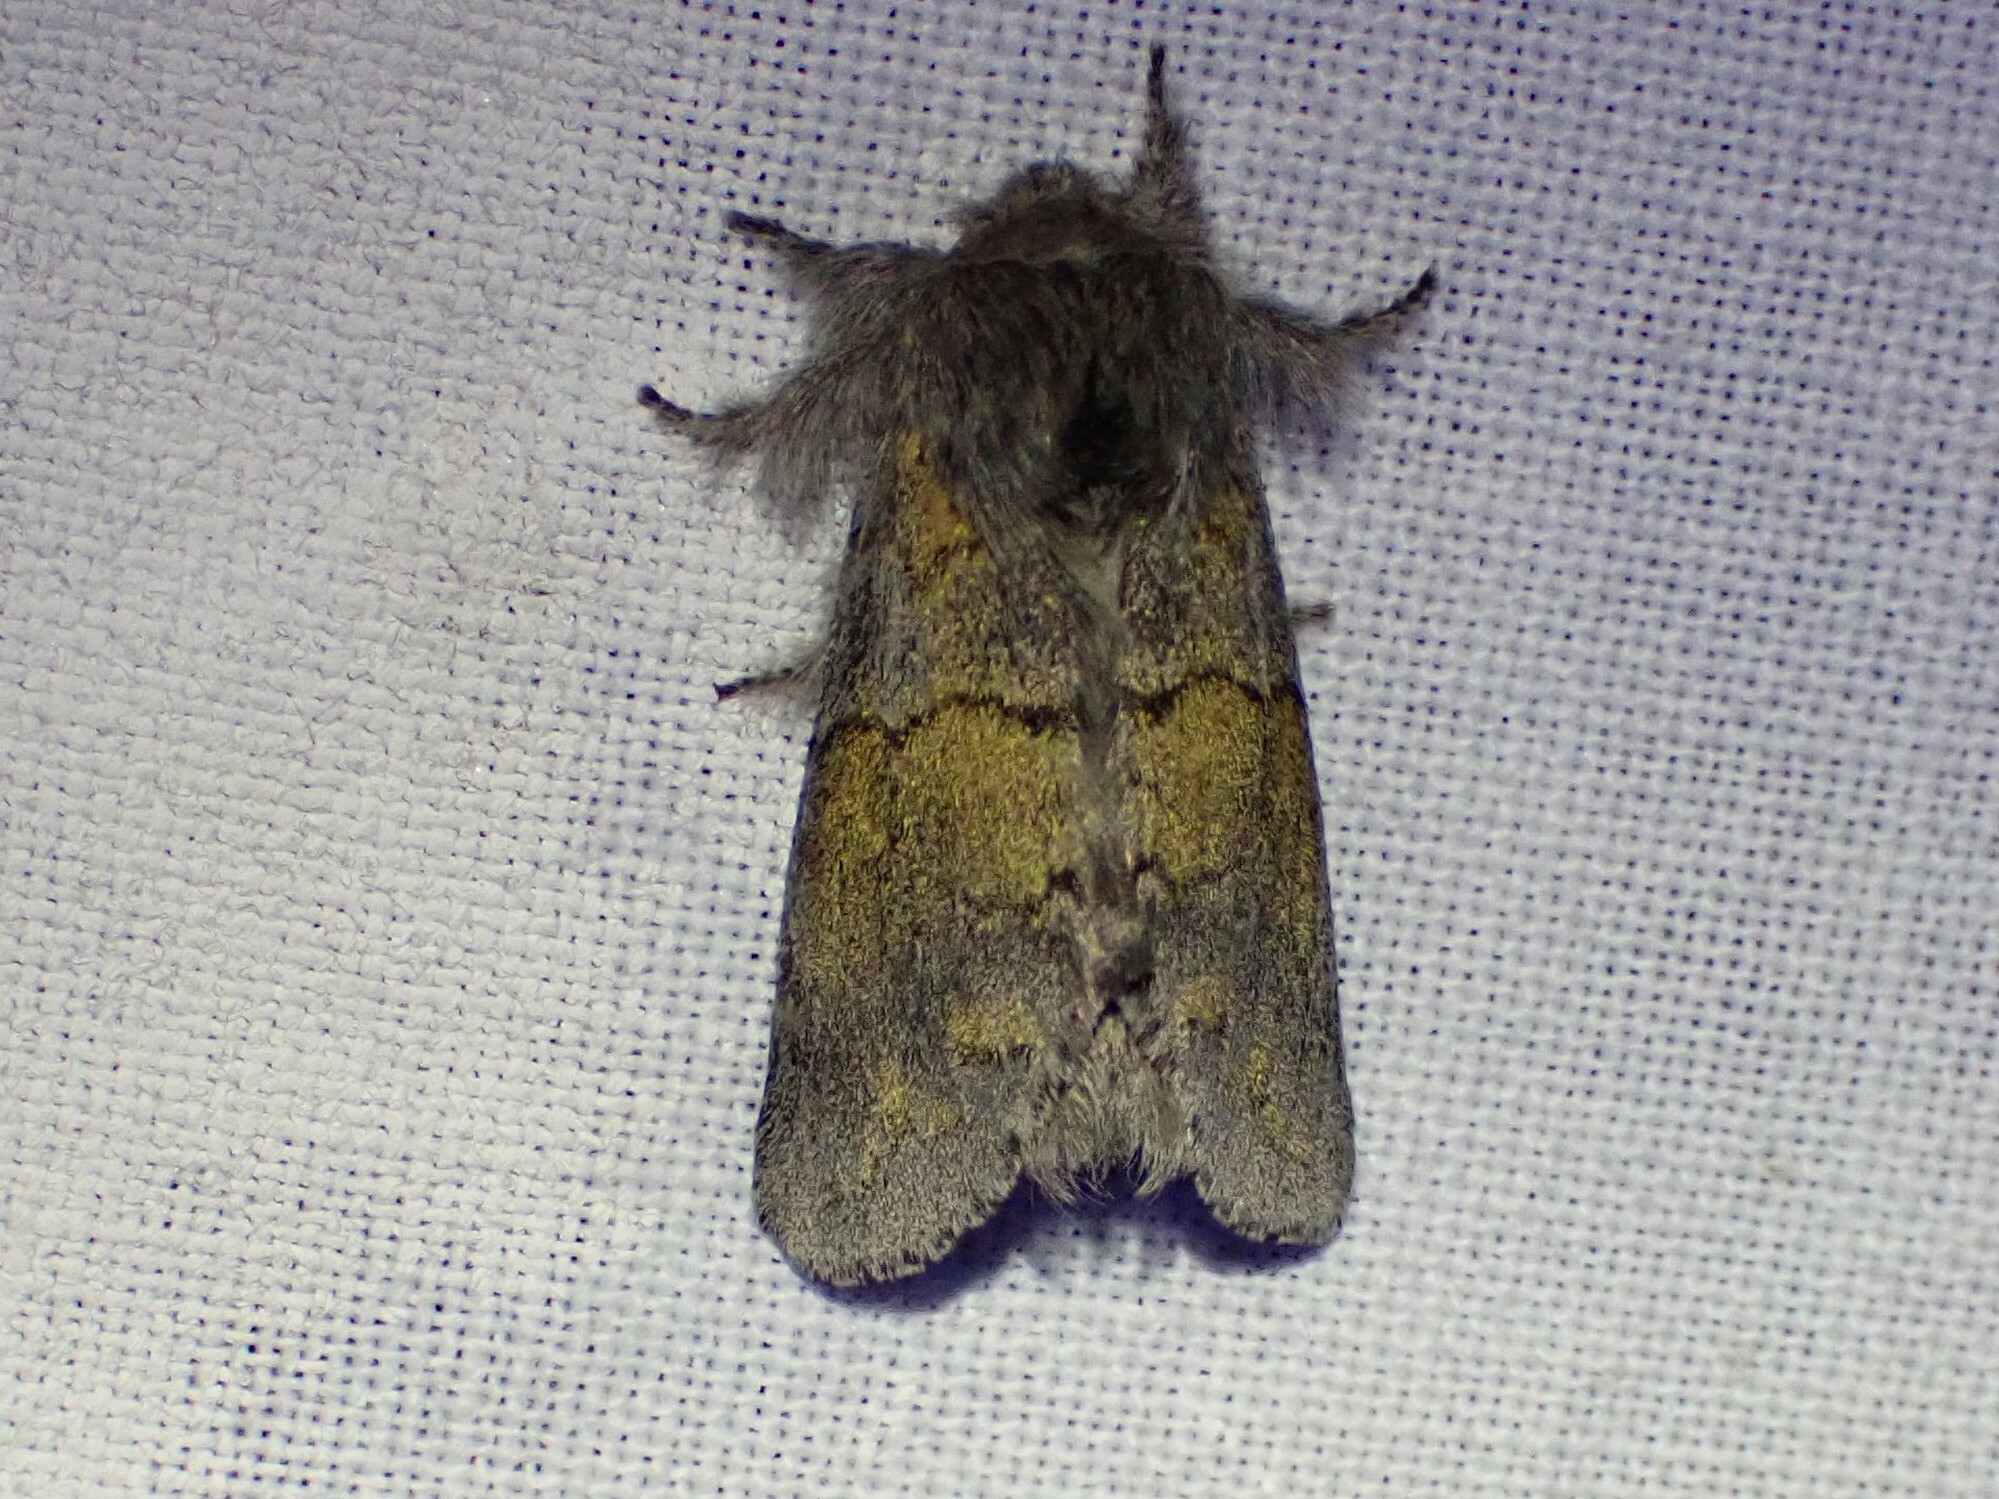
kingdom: Animalia
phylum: Arthropoda
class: Insecta
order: Lepidoptera
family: Notodontidae
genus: Gluphisia
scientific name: Gluphisia lintneri
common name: Lintner's gluphisia moth
